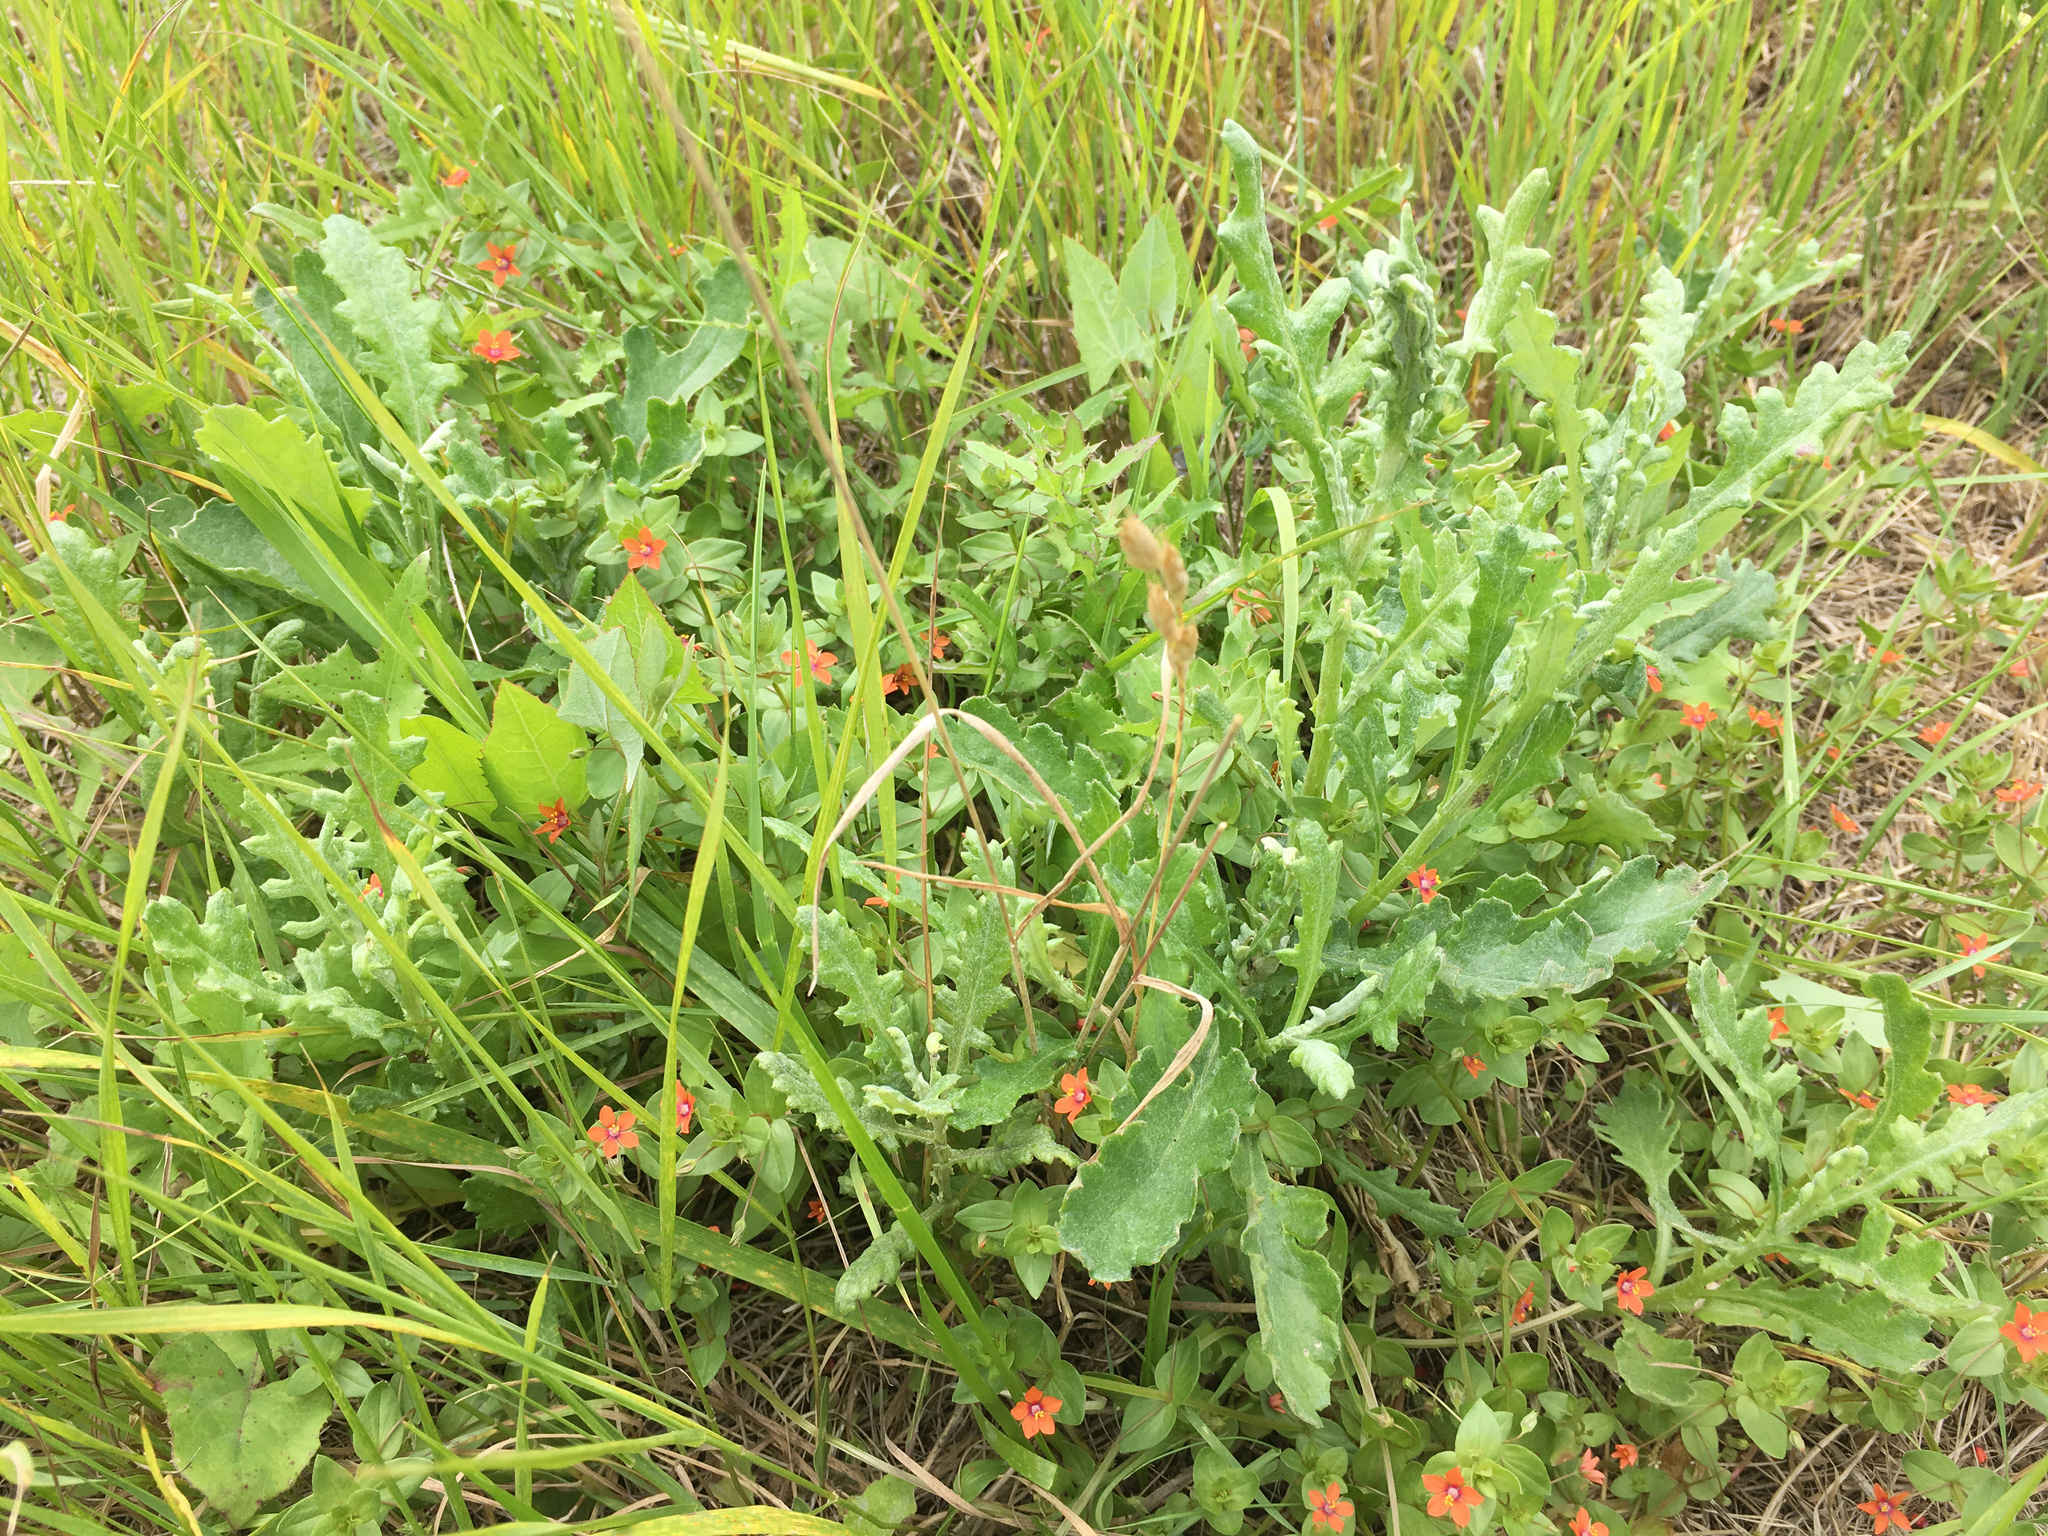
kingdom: Plantae
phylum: Tracheophyta
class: Magnoliopsida
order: Asterales
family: Asteraceae
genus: Senecio
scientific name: Senecio glomeratus
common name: Cutleaf burnweed
